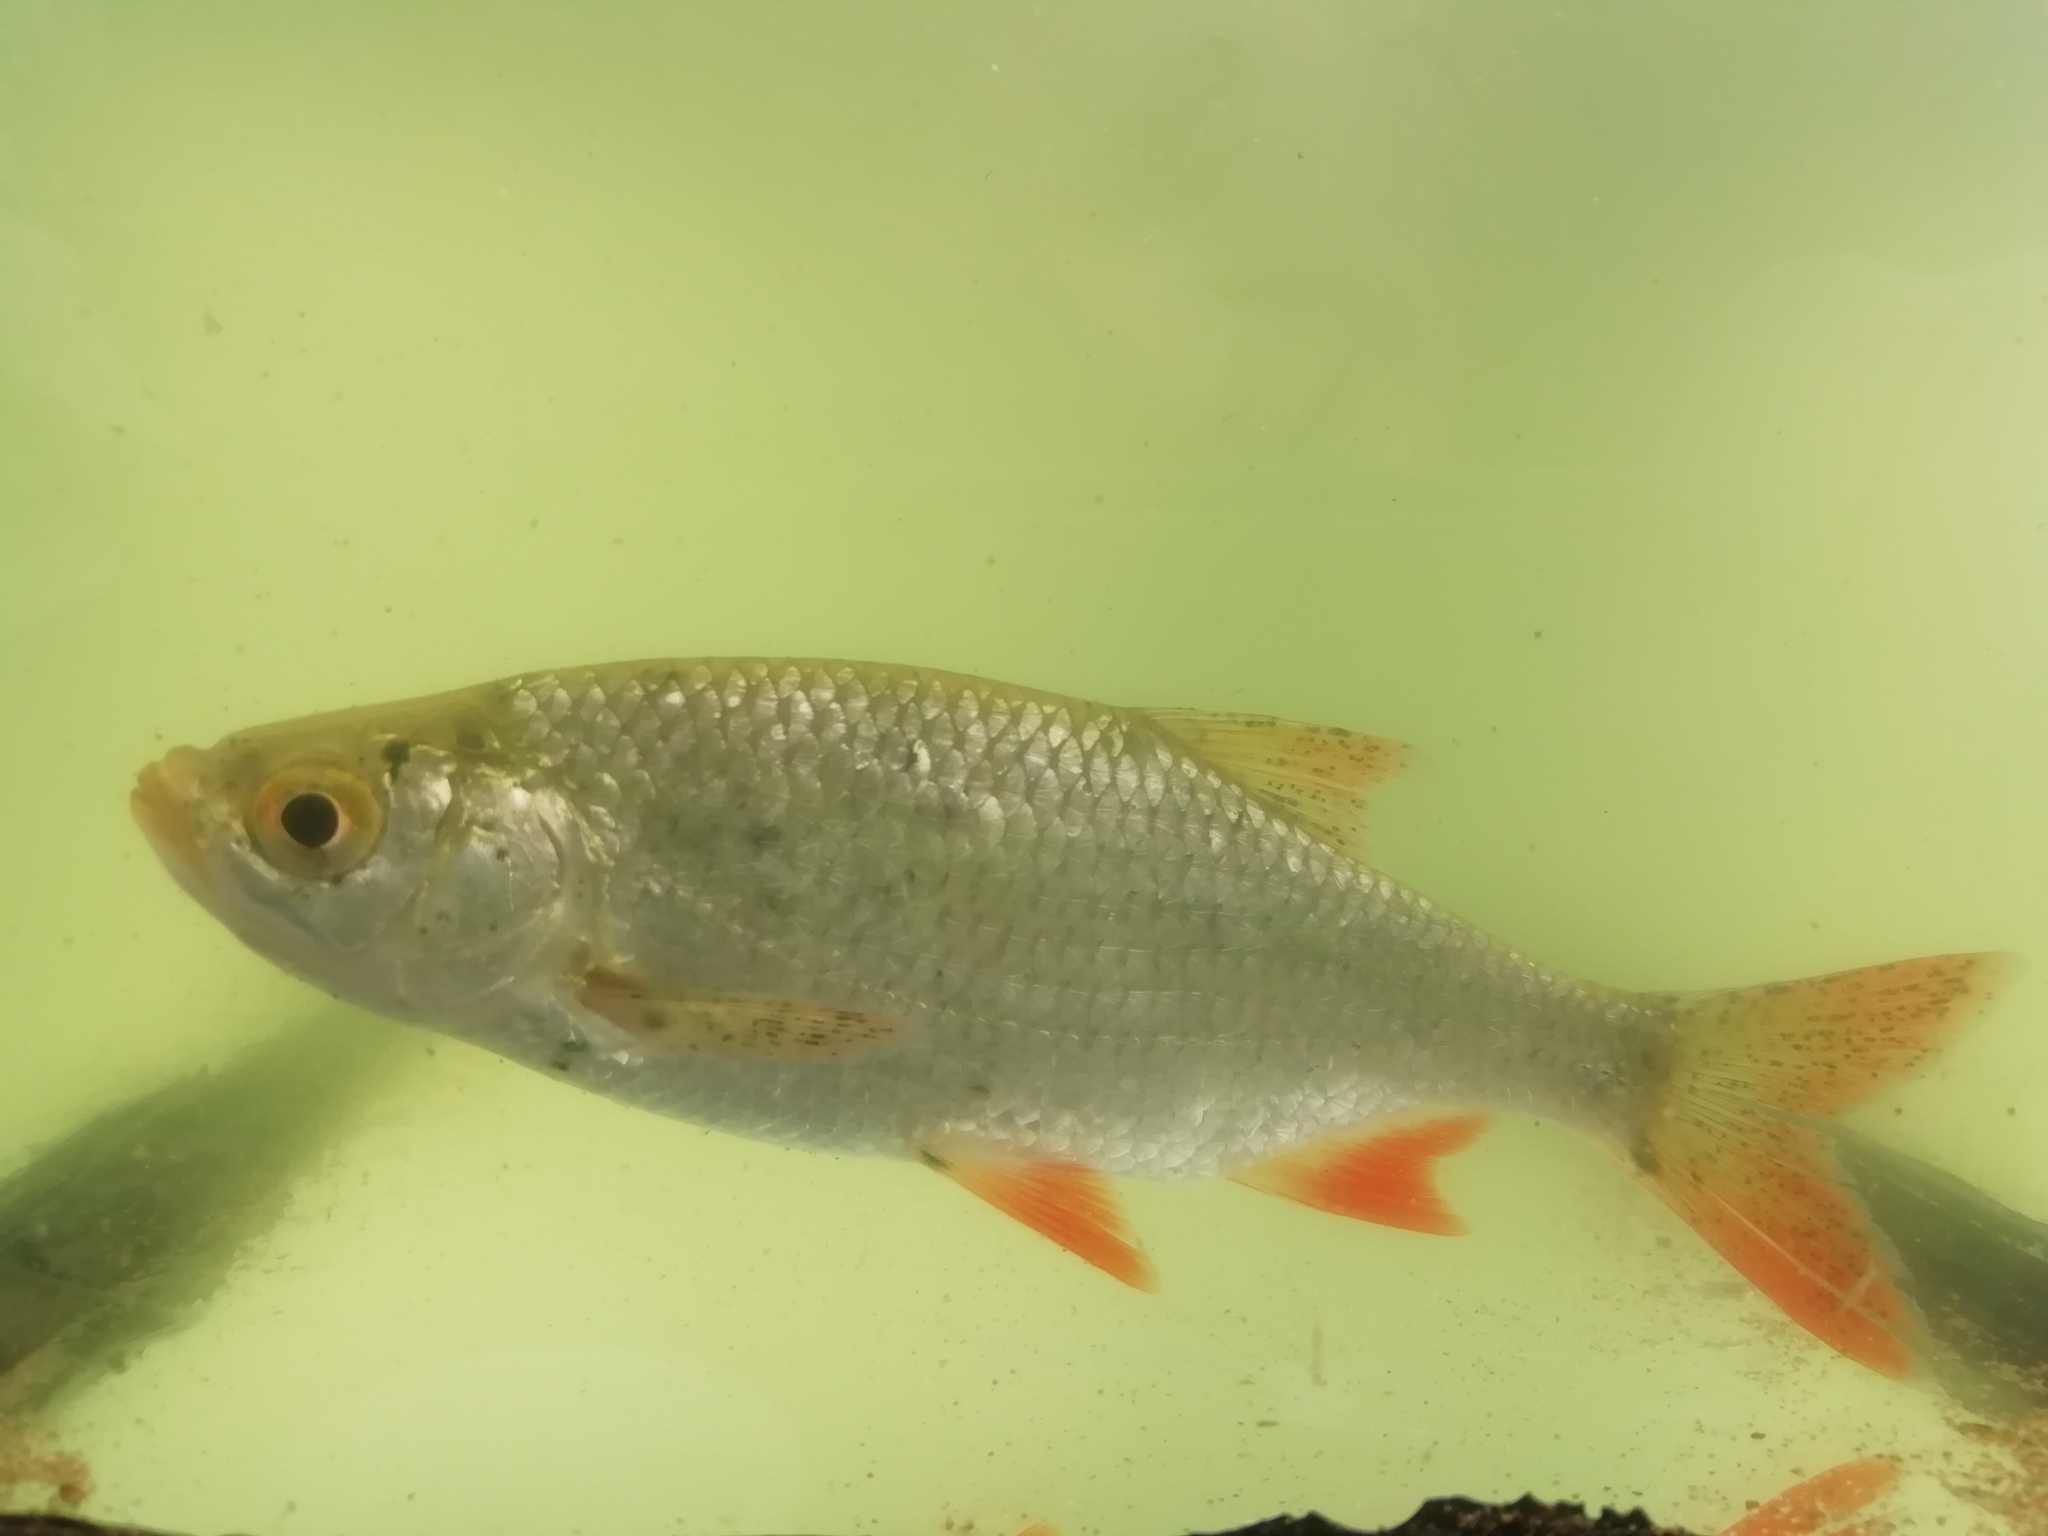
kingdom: Animalia
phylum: Chordata
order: Cypriniformes
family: Cyprinidae
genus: Scardinius
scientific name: Scardinius erythrophthalmus
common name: Rudd
